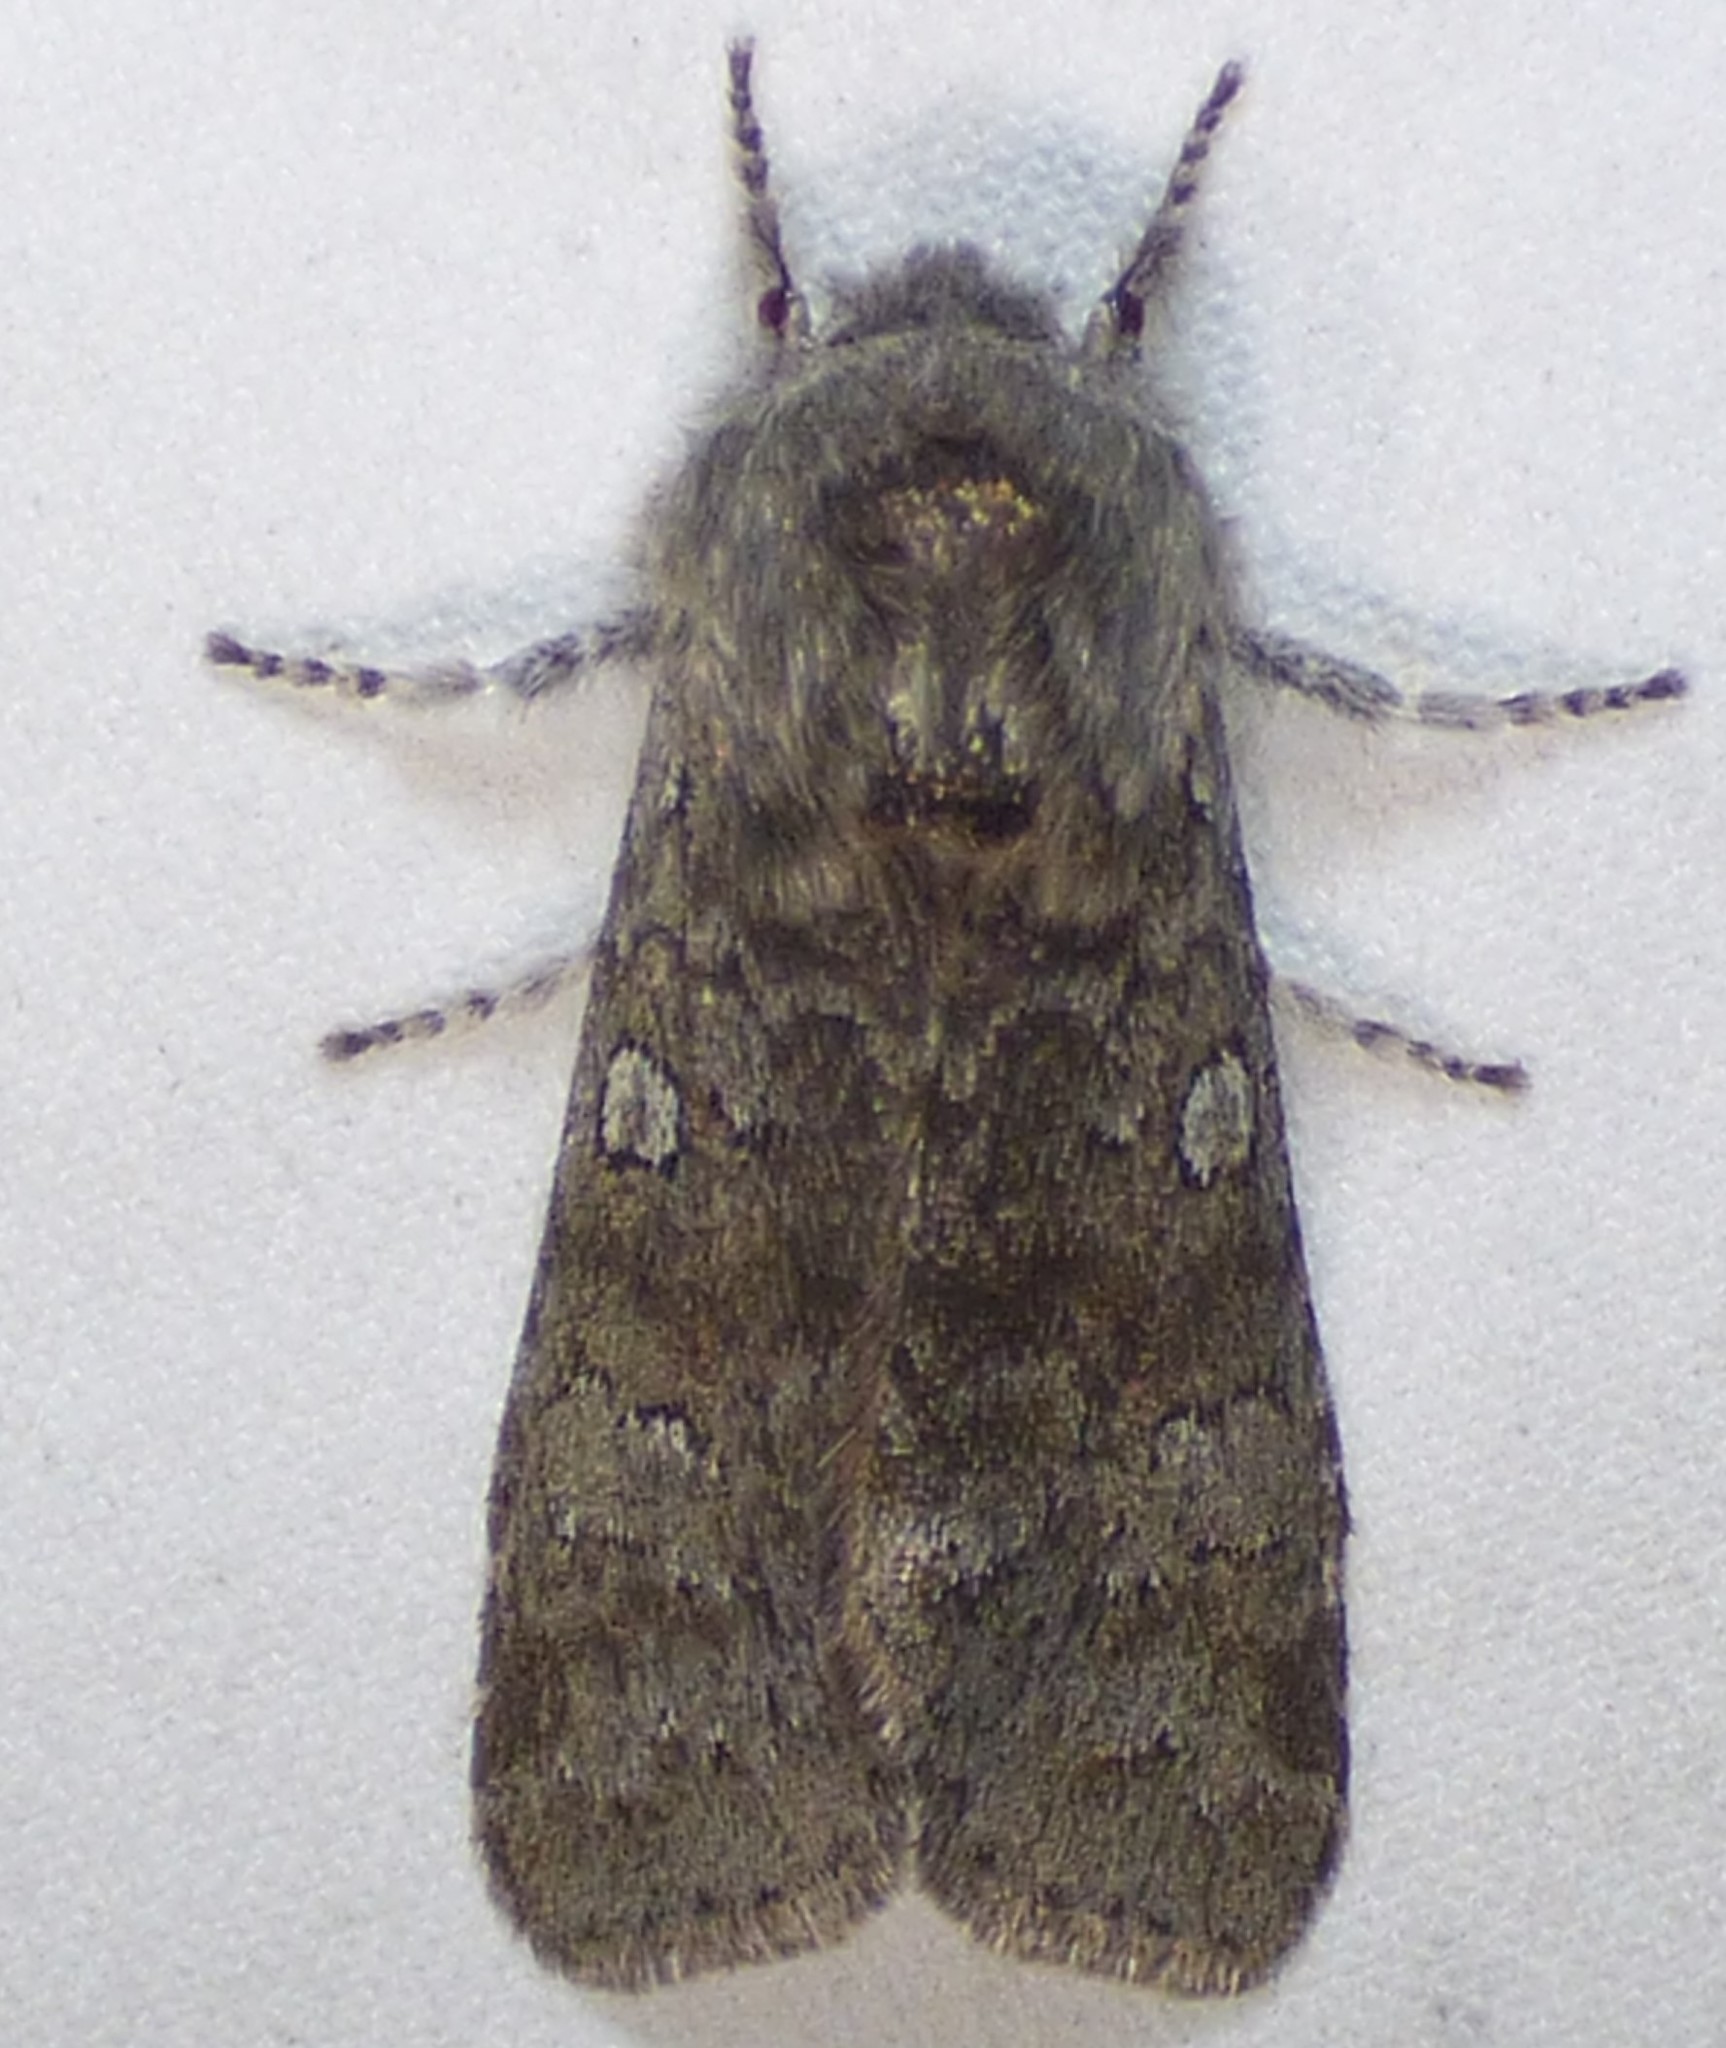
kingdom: Animalia
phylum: Arthropoda
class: Insecta
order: Lepidoptera
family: Noctuidae
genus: Psaphida
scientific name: Psaphida rolandi
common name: Roland's sallow
